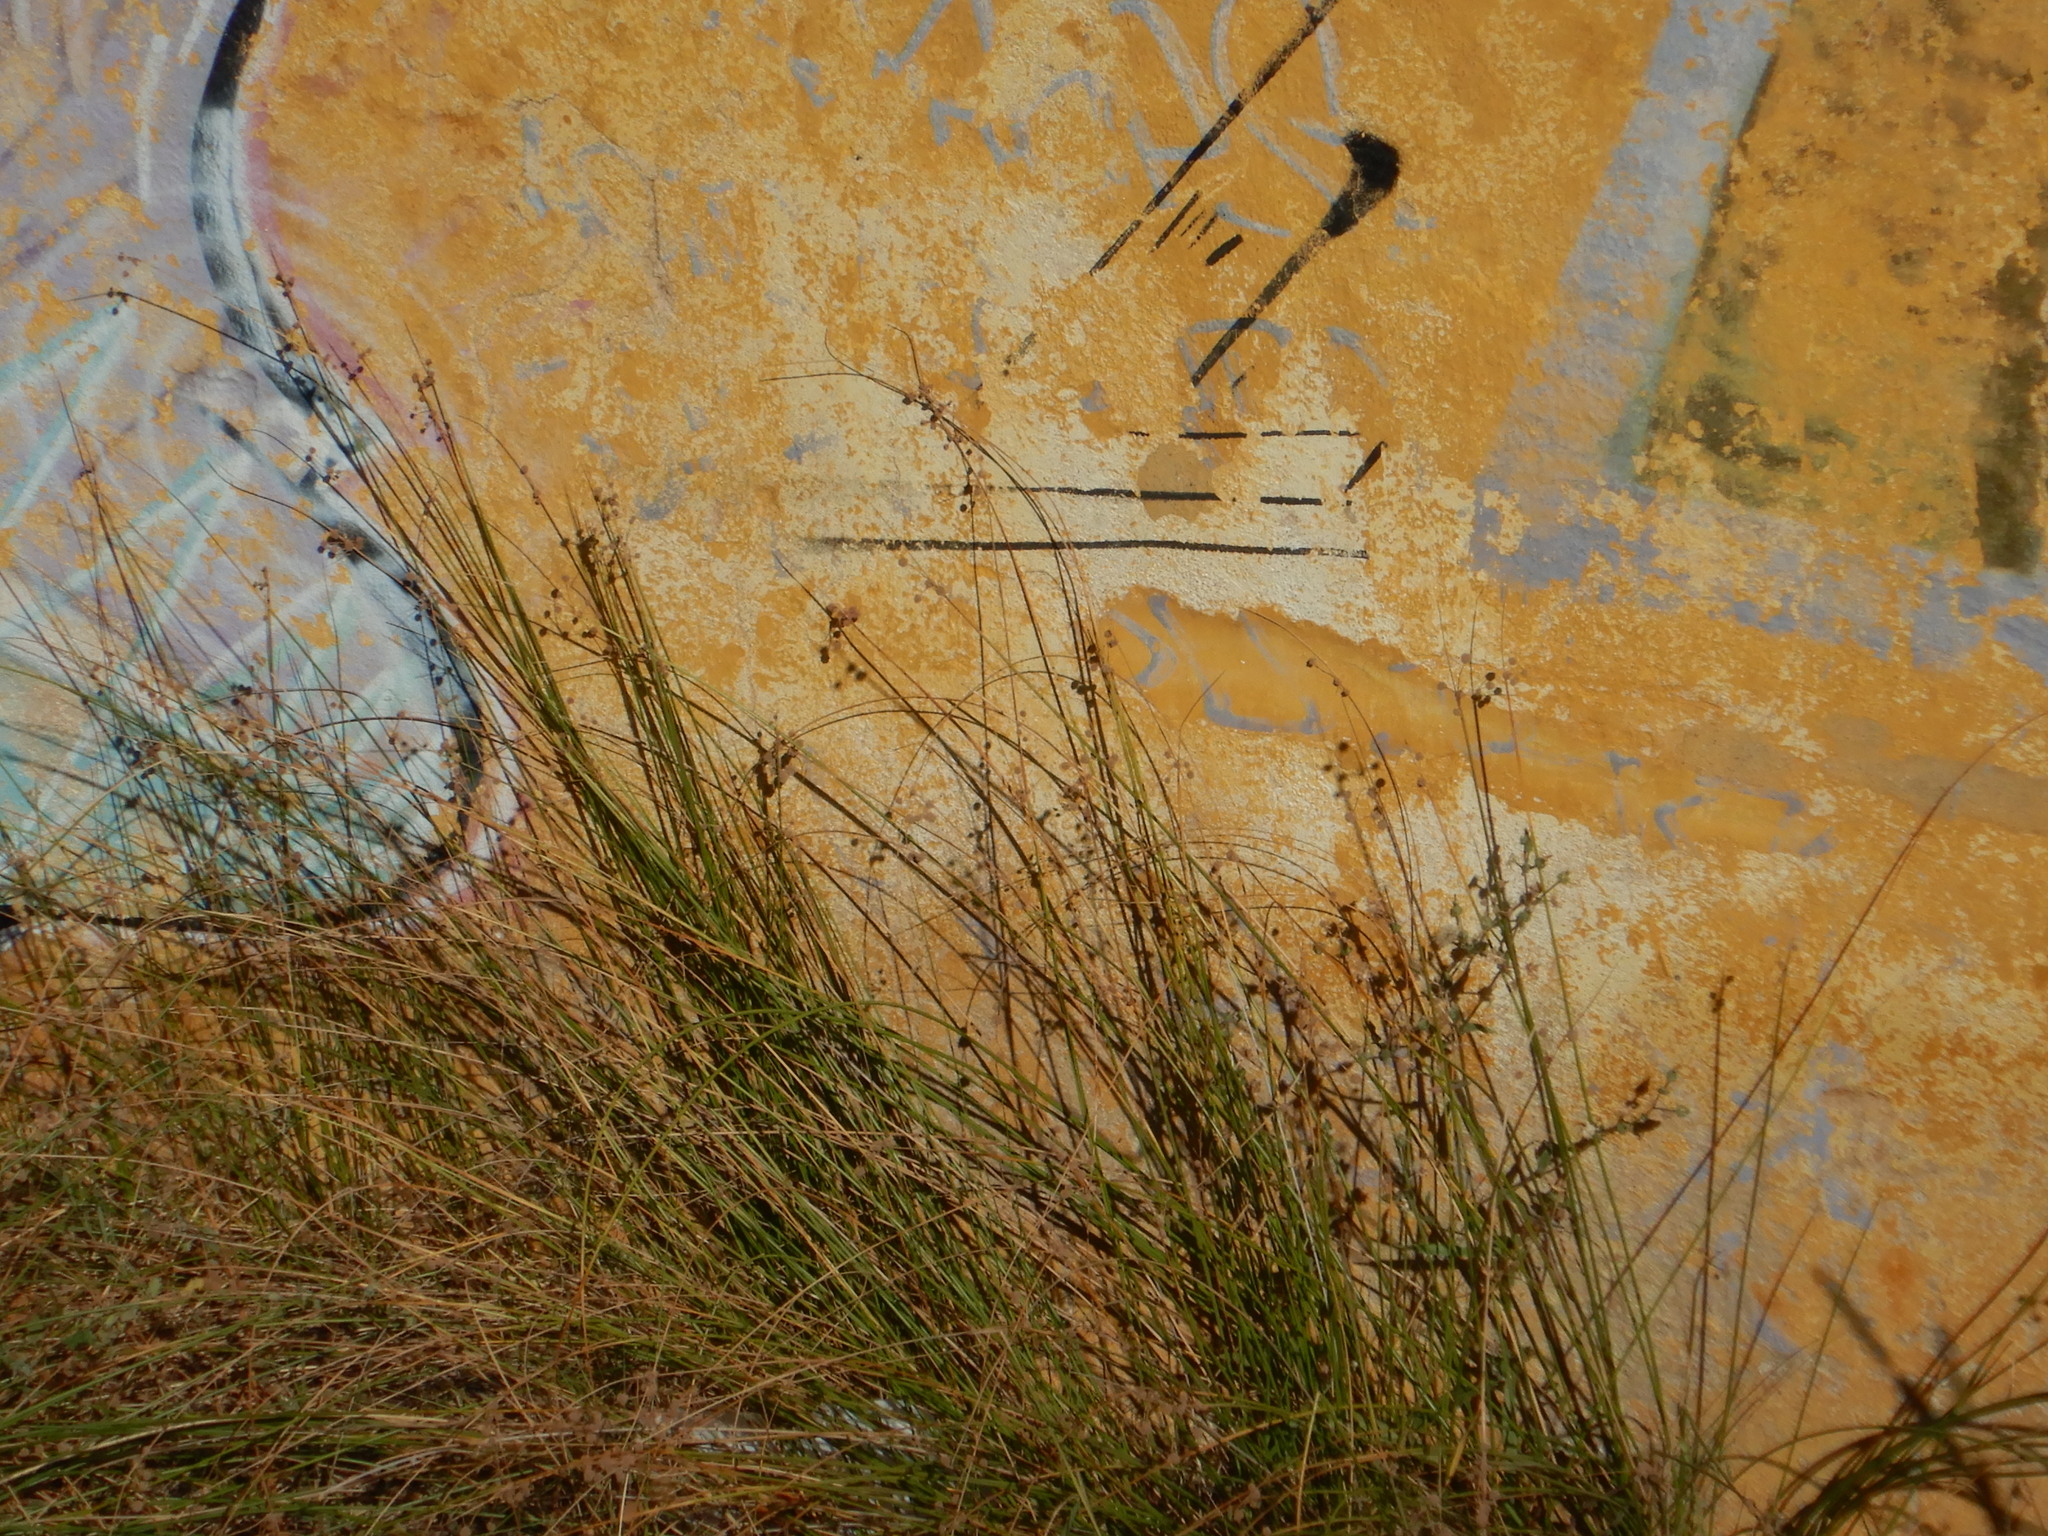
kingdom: Plantae
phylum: Tracheophyta
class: Liliopsida
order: Poales
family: Cyperaceae
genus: Scirpoides
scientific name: Scirpoides holoschoenus
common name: Round-headed club-rush
